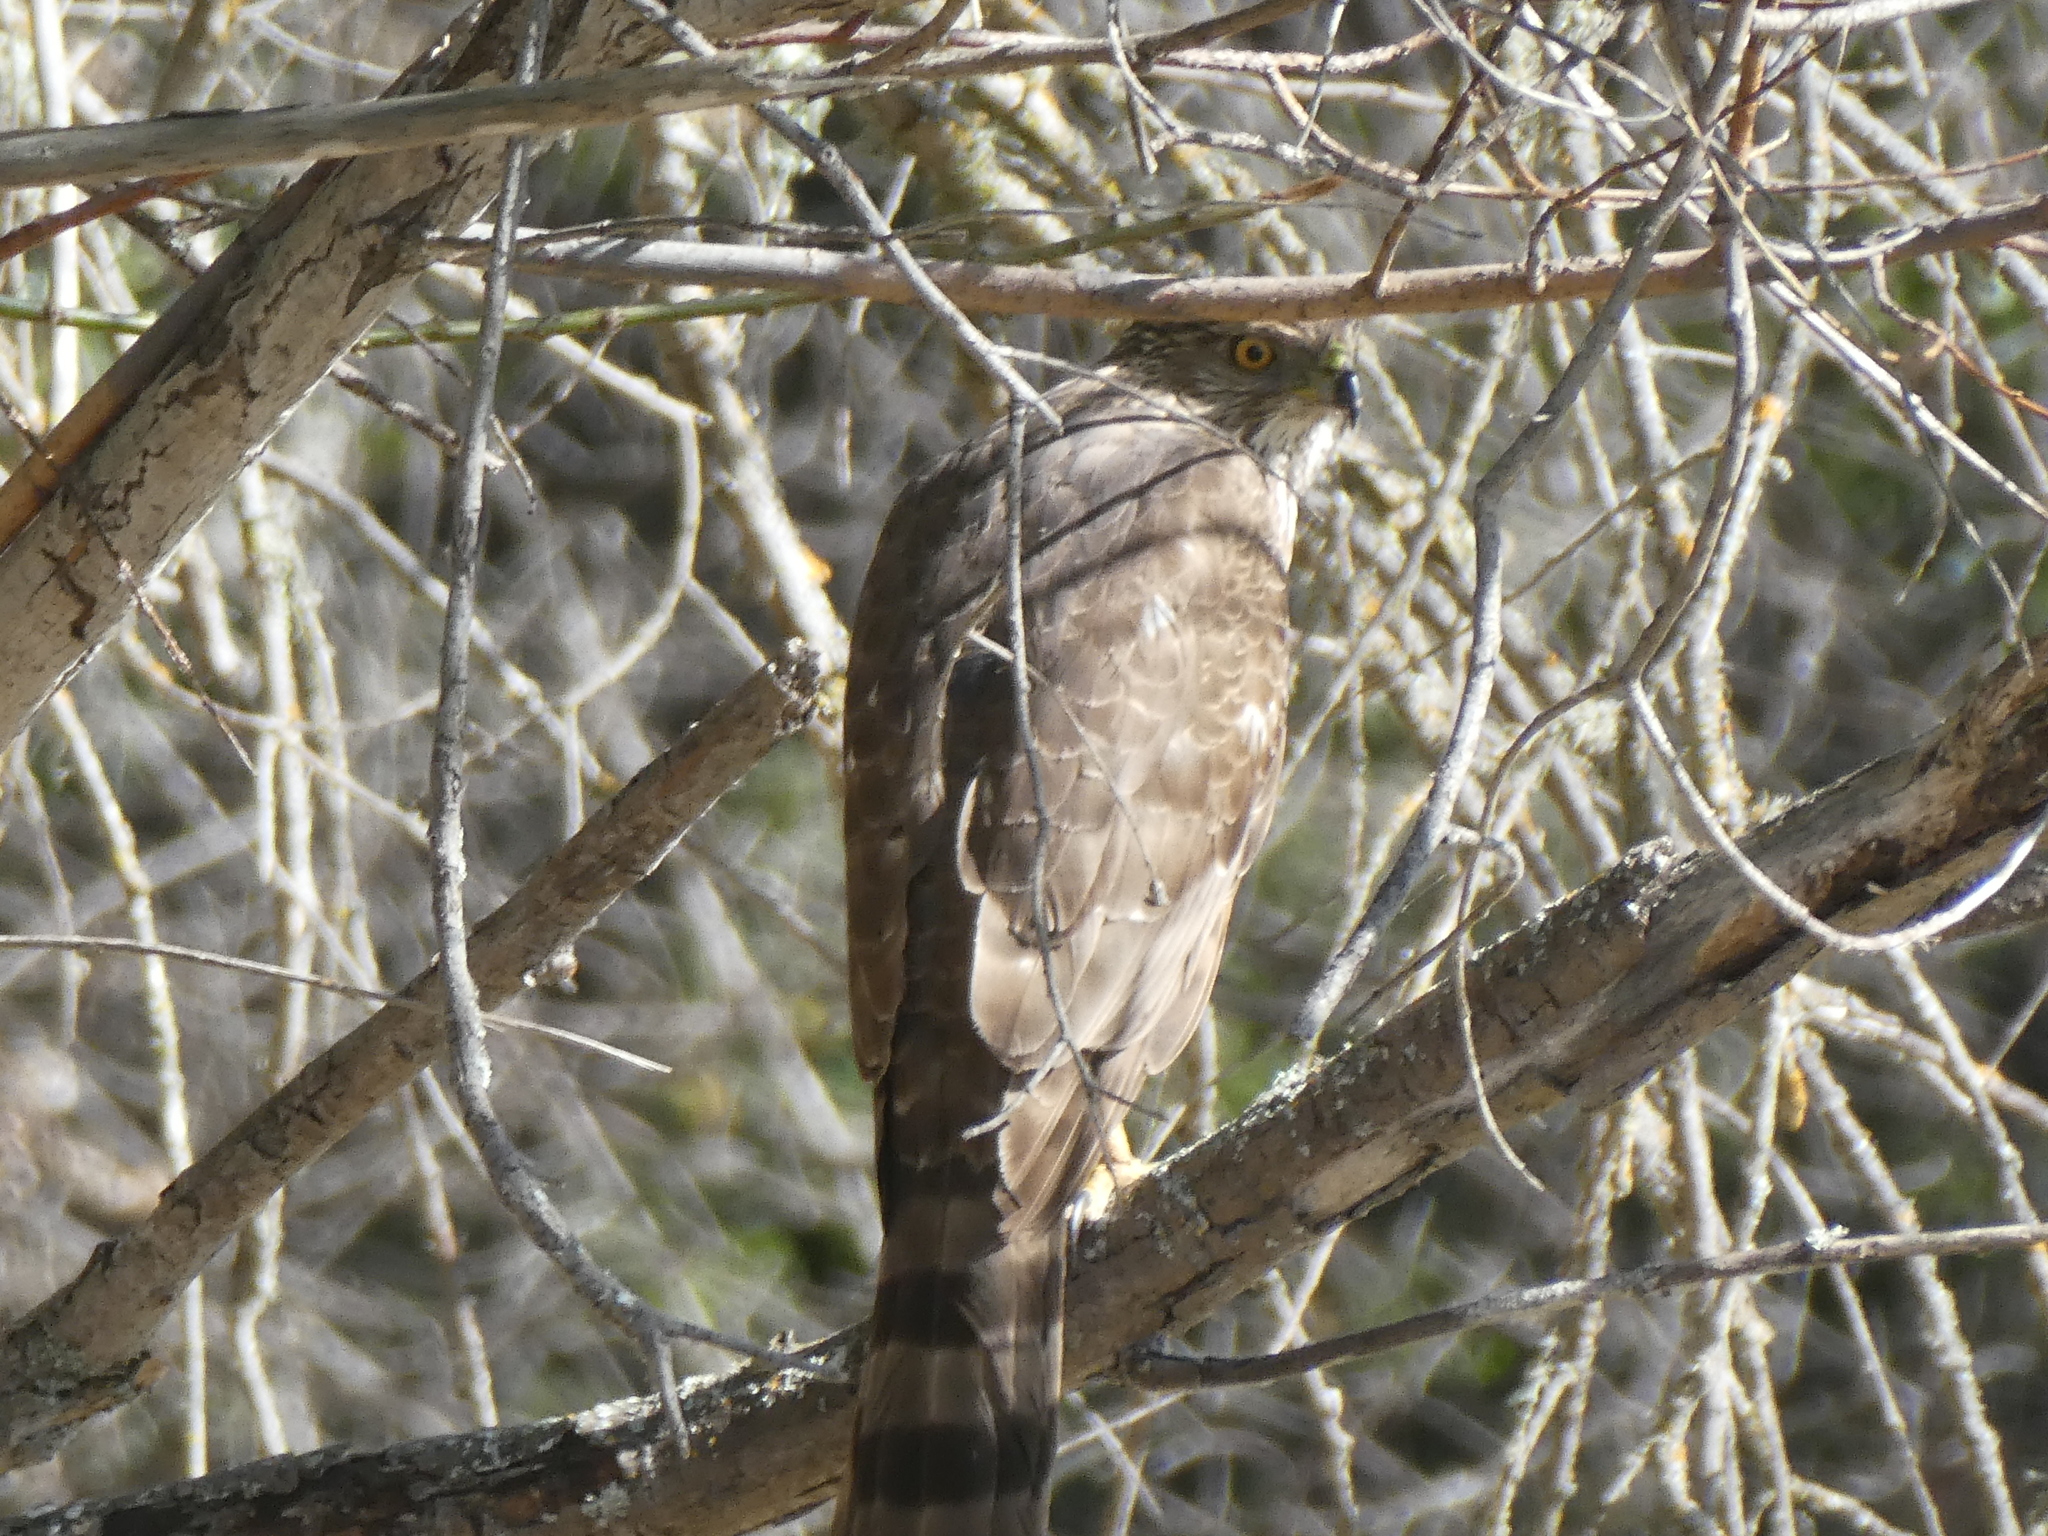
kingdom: Animalia
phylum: Chordata
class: Aves
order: Accipitriformes
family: Accipitridae
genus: Accipiter
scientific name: Accipiter cooperii
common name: Cooper's hawk
